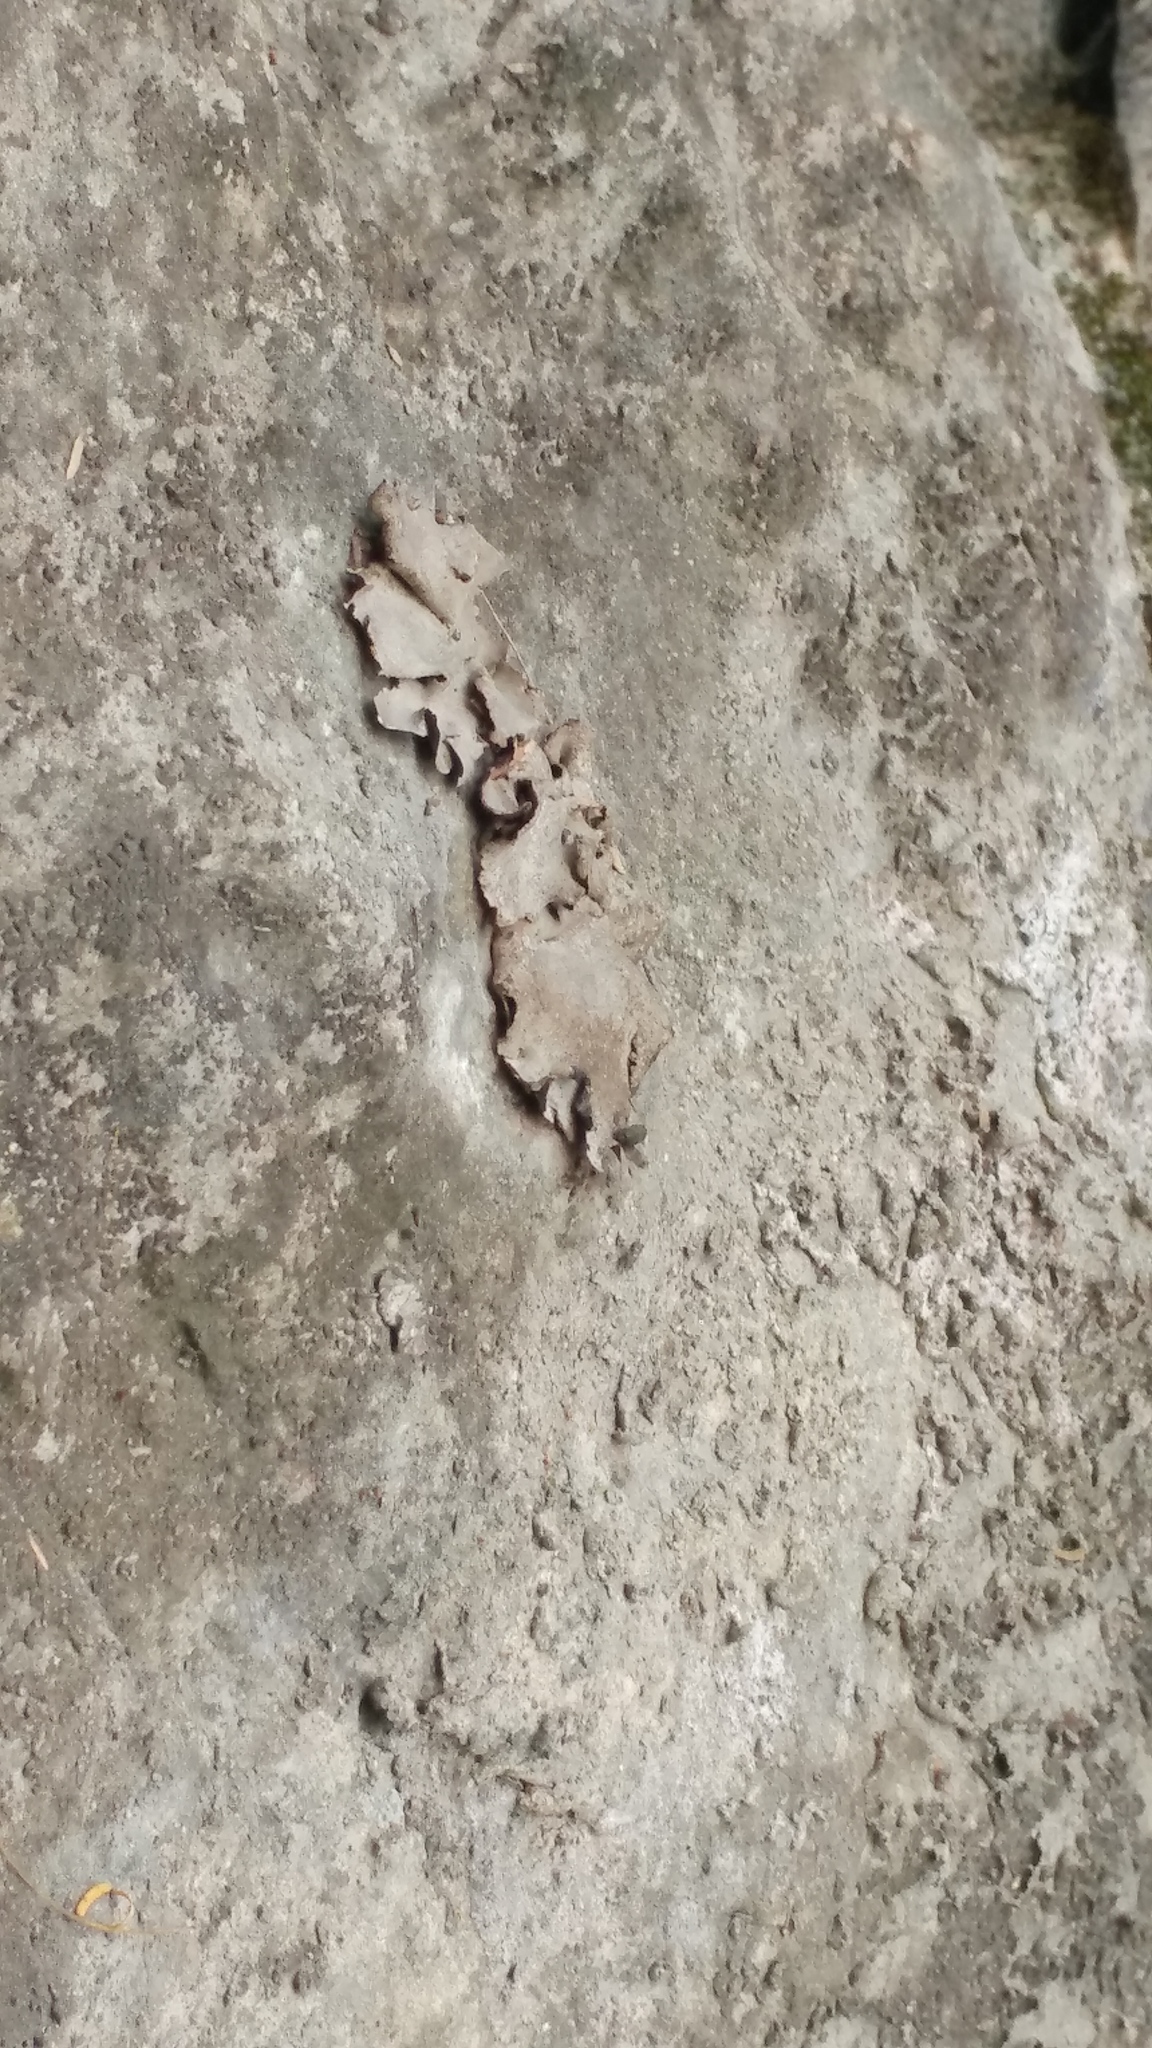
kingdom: Fungi
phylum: Ascomycota
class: Eurotiomycetes
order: Verrucariales
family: Verrucariaceae
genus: Dermatocarpon
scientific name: Dermatocarpon miniatum
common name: Leather lichen
